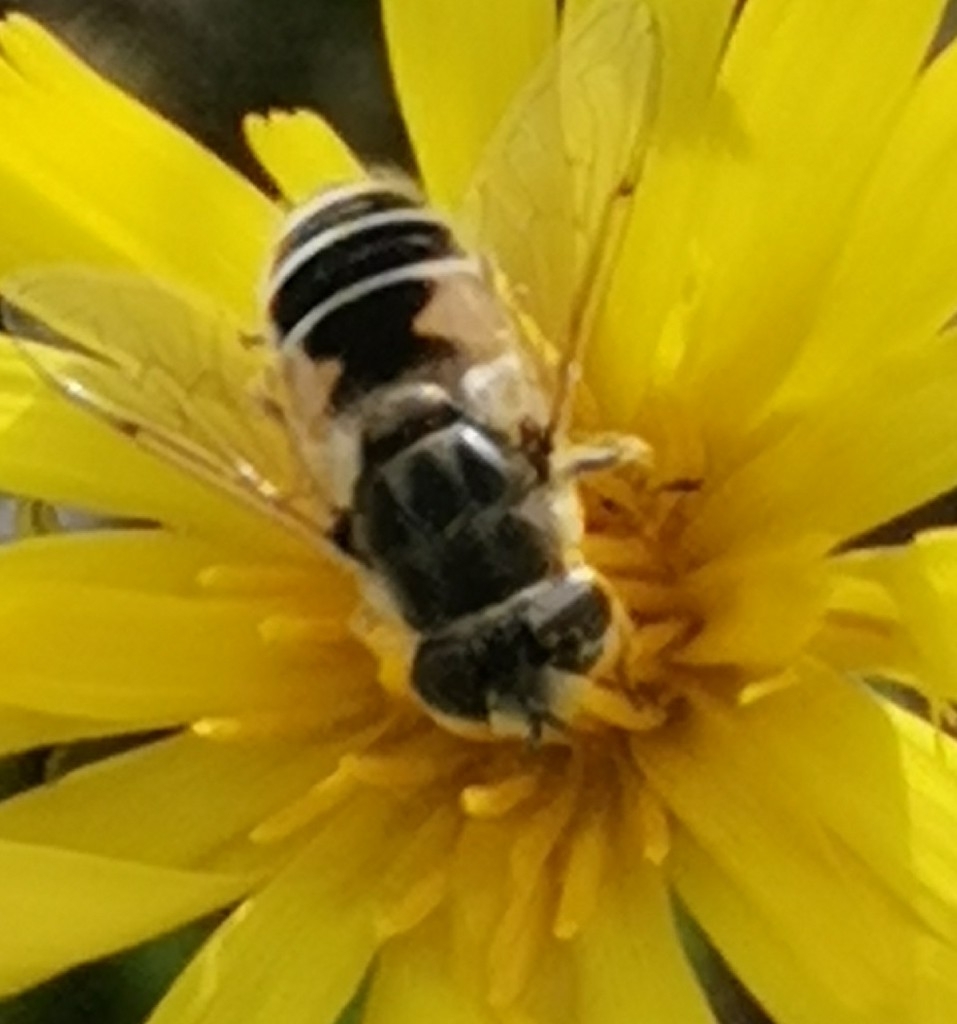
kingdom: Animalia
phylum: Arthropoda
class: Insecta
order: Diptera
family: Syrphidae
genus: Eristalis
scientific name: Eristalis arbustorum
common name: Hover fly
